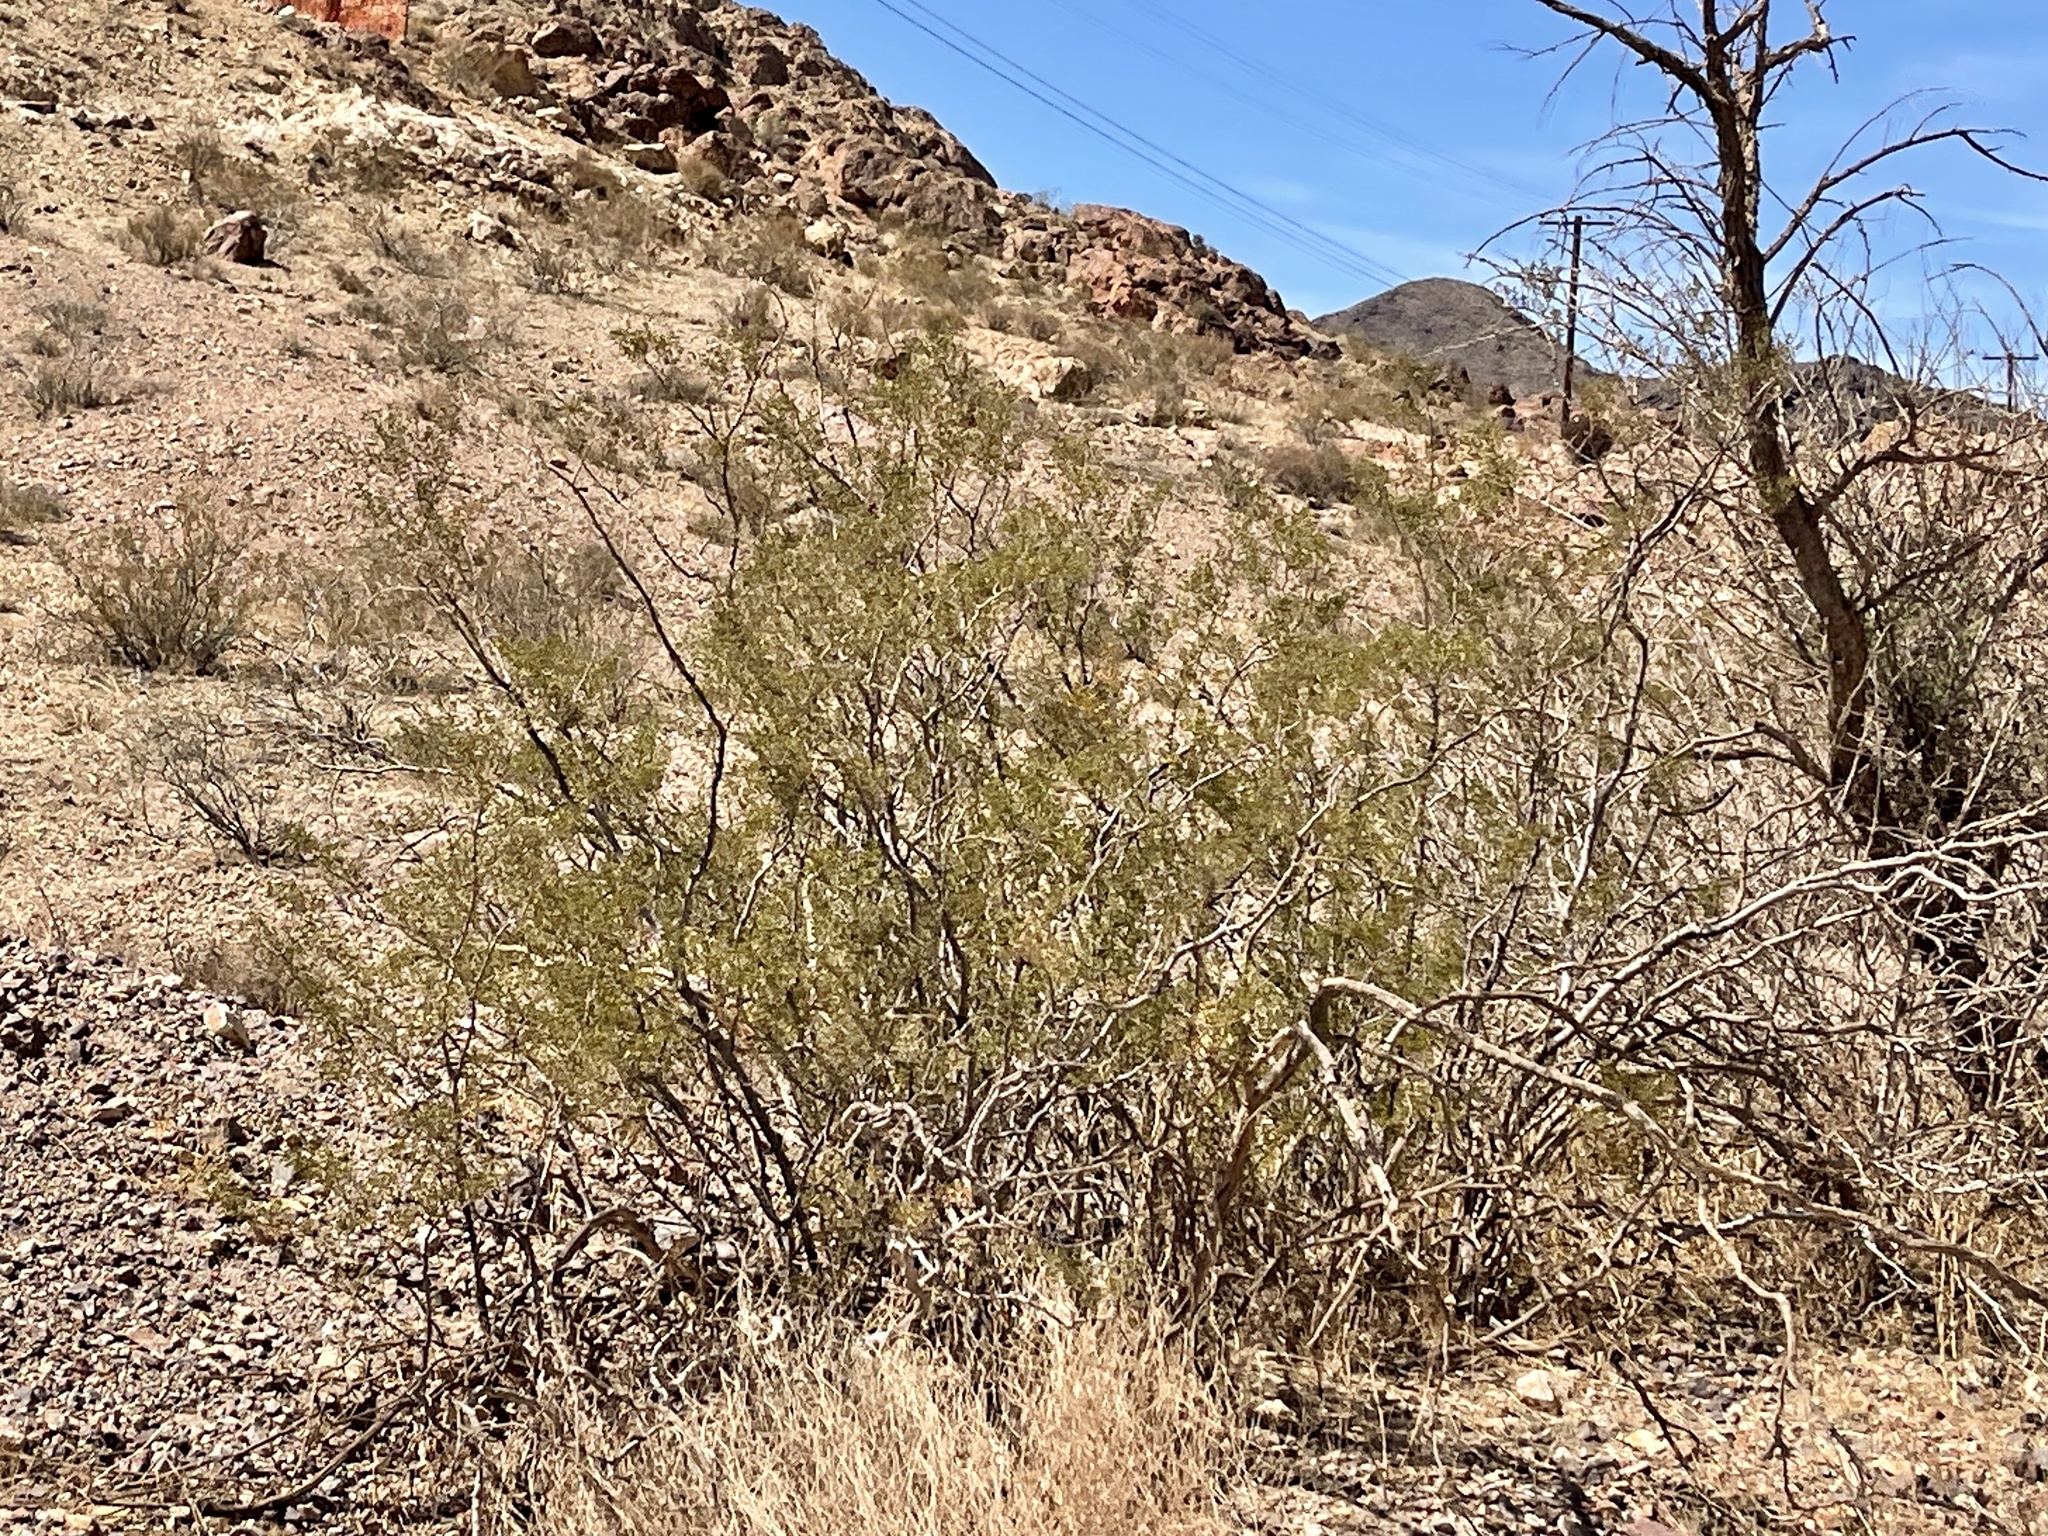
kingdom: Plantae
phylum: Tracheophyta
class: Magnoliopsida
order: Zygophyllales
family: Zygophyllaceae
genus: Larrea
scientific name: Larrea tridentata
